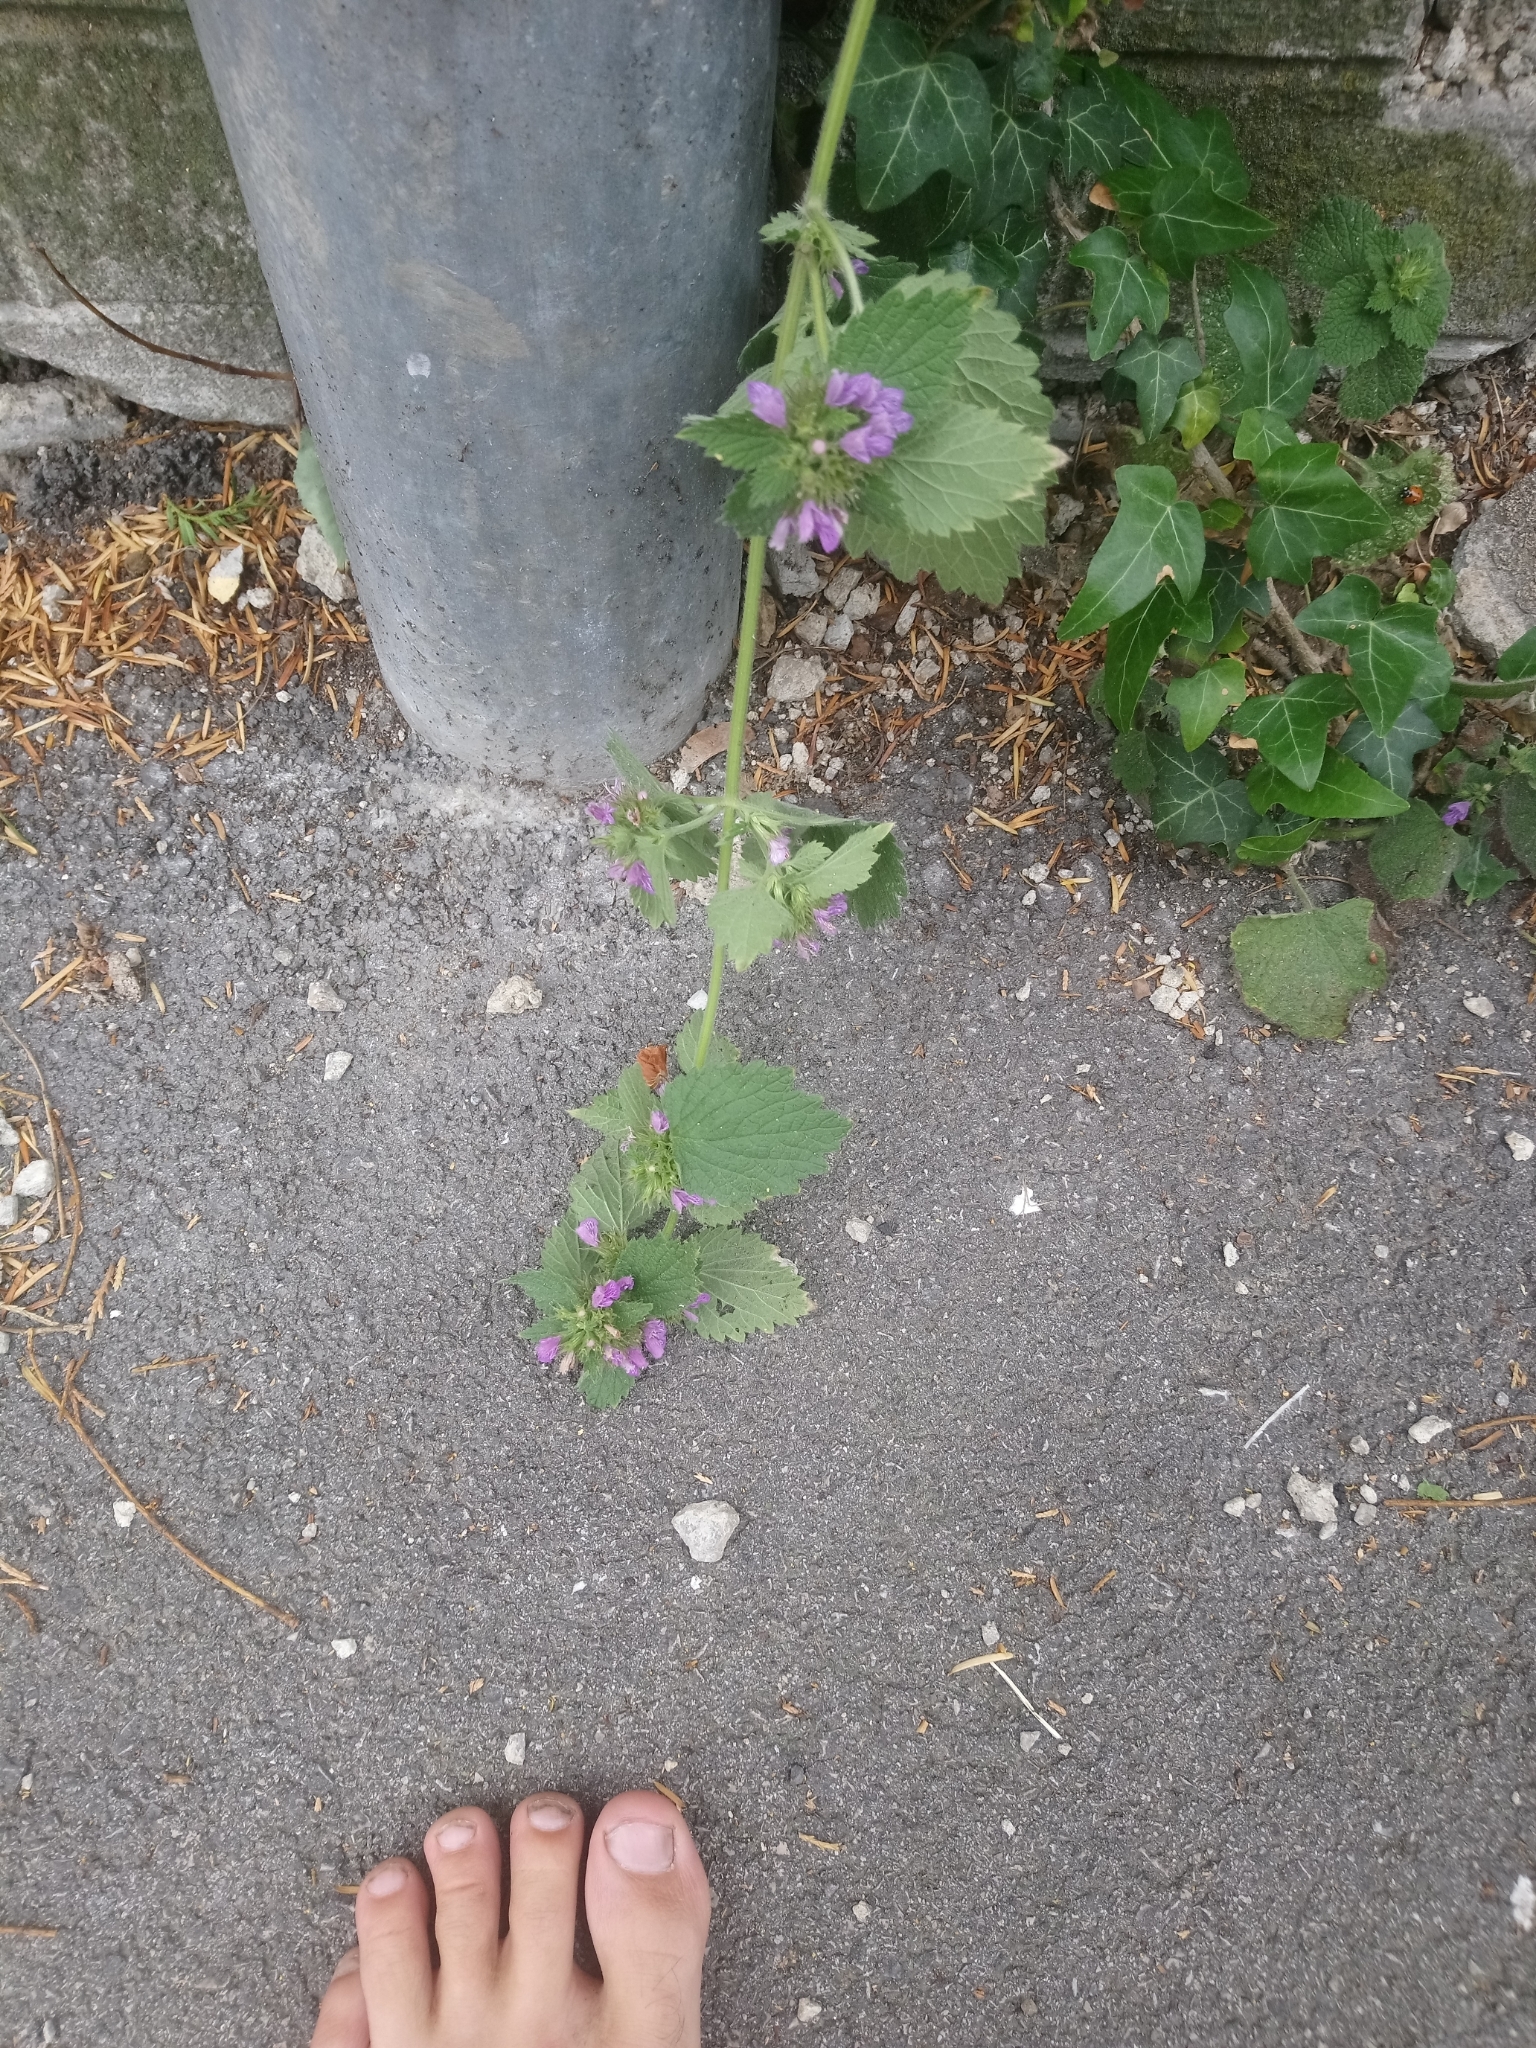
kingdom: Plantae
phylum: Tracheophyta
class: Magnoliopsida
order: Lamiales
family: Lamiaceae
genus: Ballota
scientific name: Ballota nigra
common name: Black horehound
